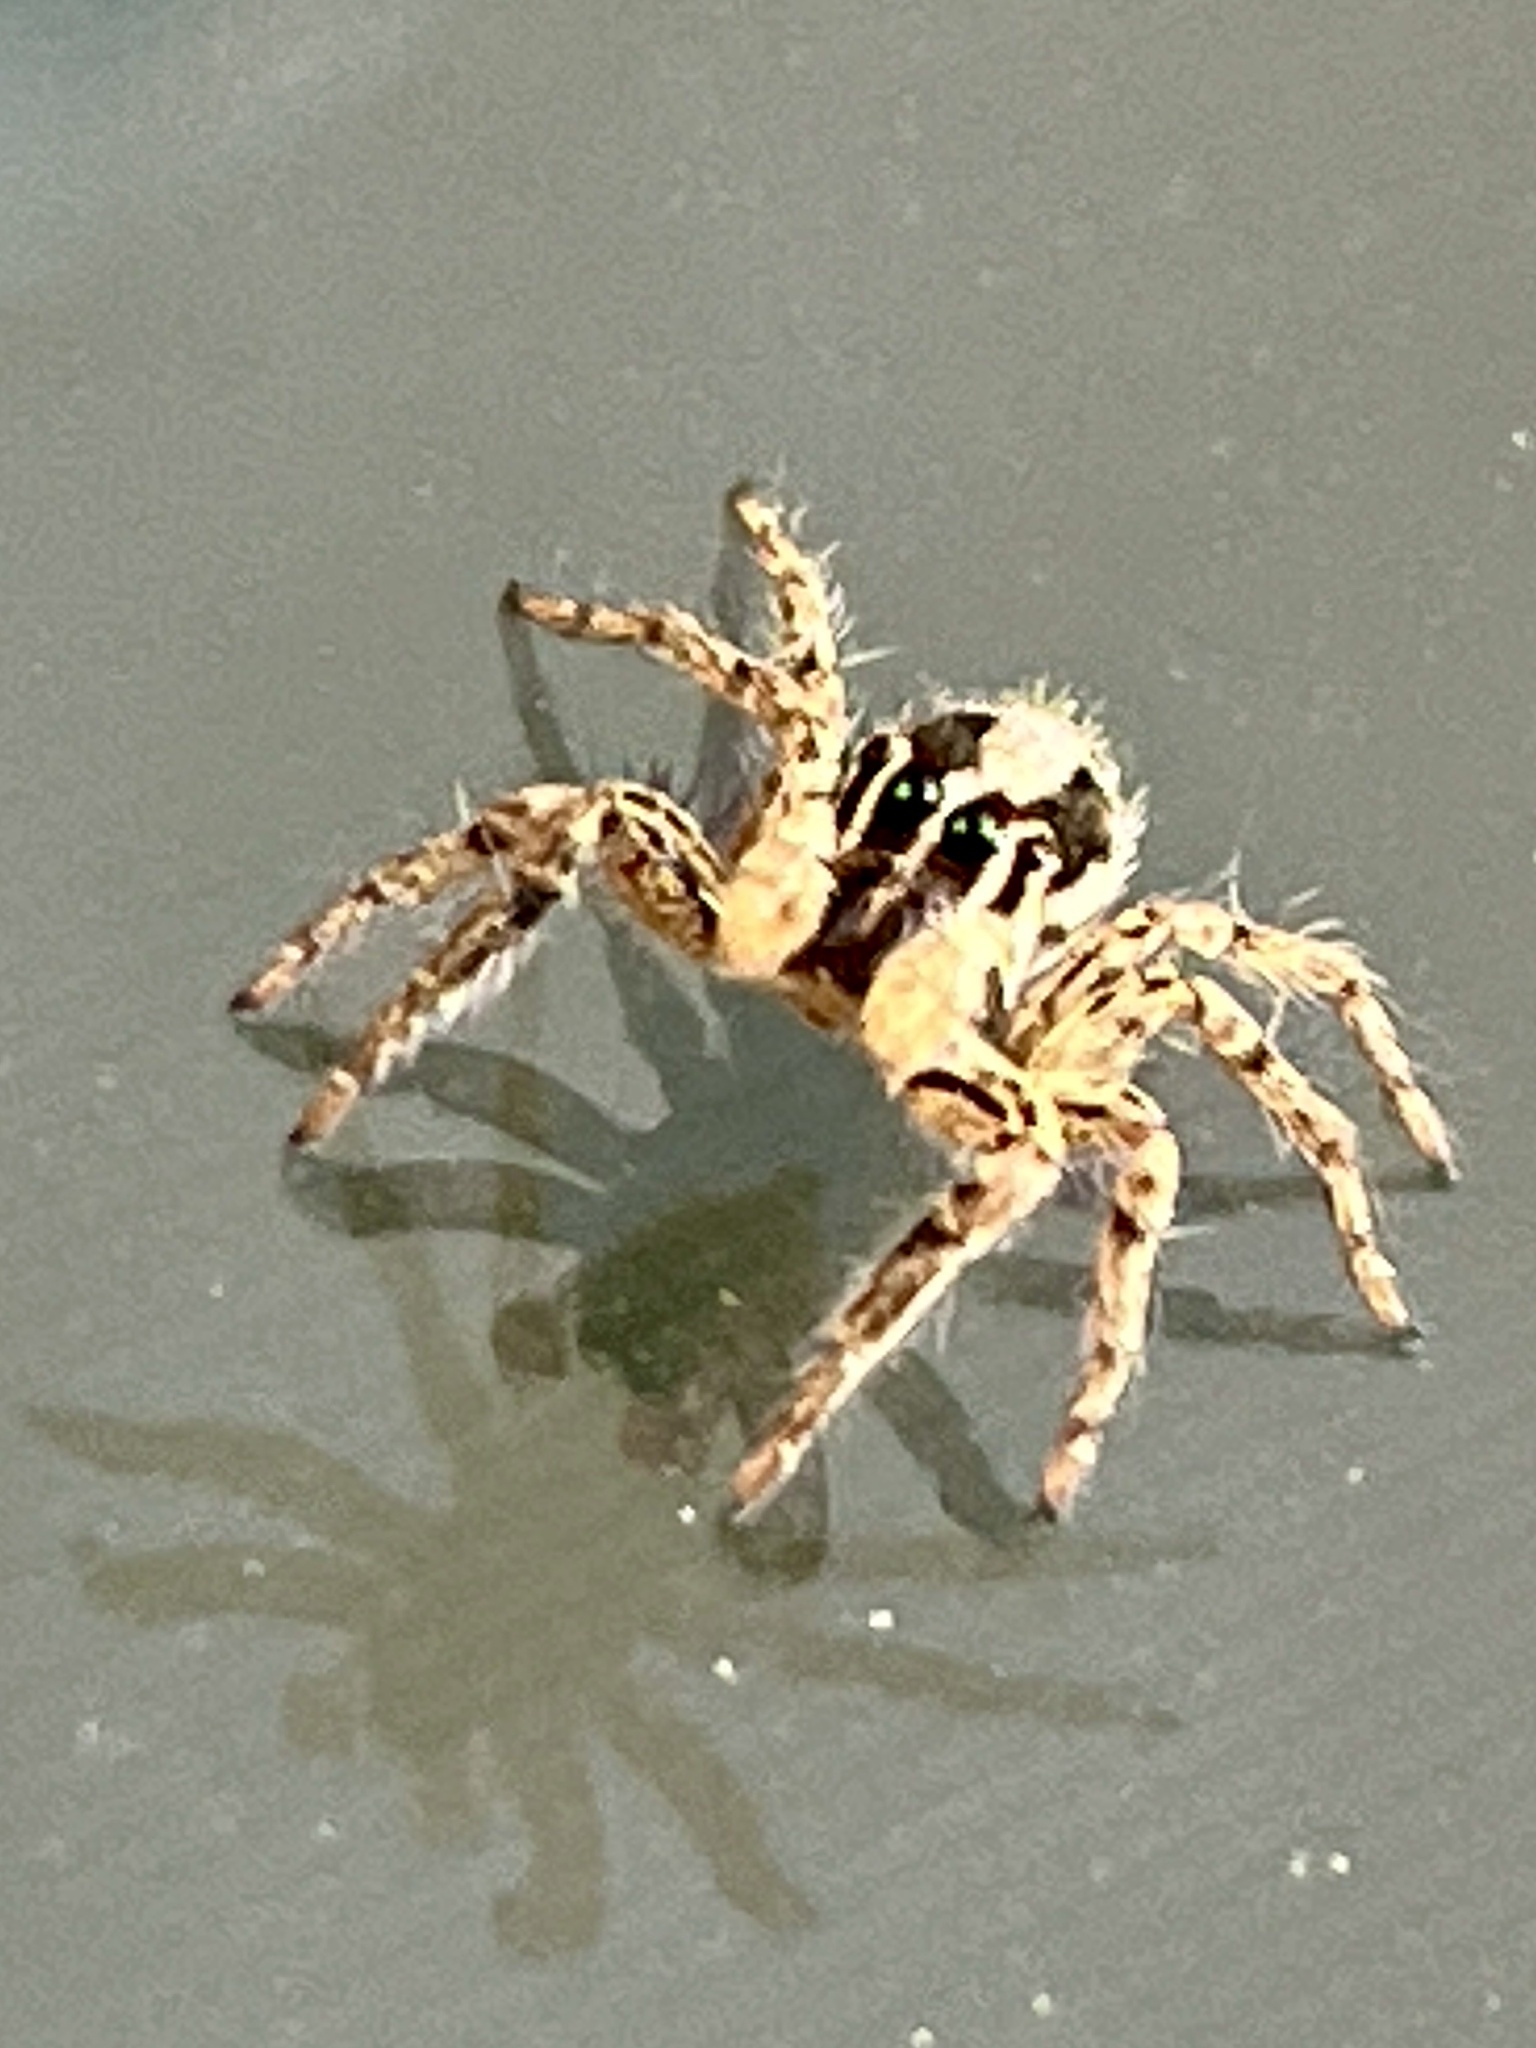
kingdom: Animalia
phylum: Arthropoda
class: Arachnida
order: Araneae
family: Salticidae
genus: Plexippus
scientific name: Plexippus paykulli
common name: Pantropical jumper
